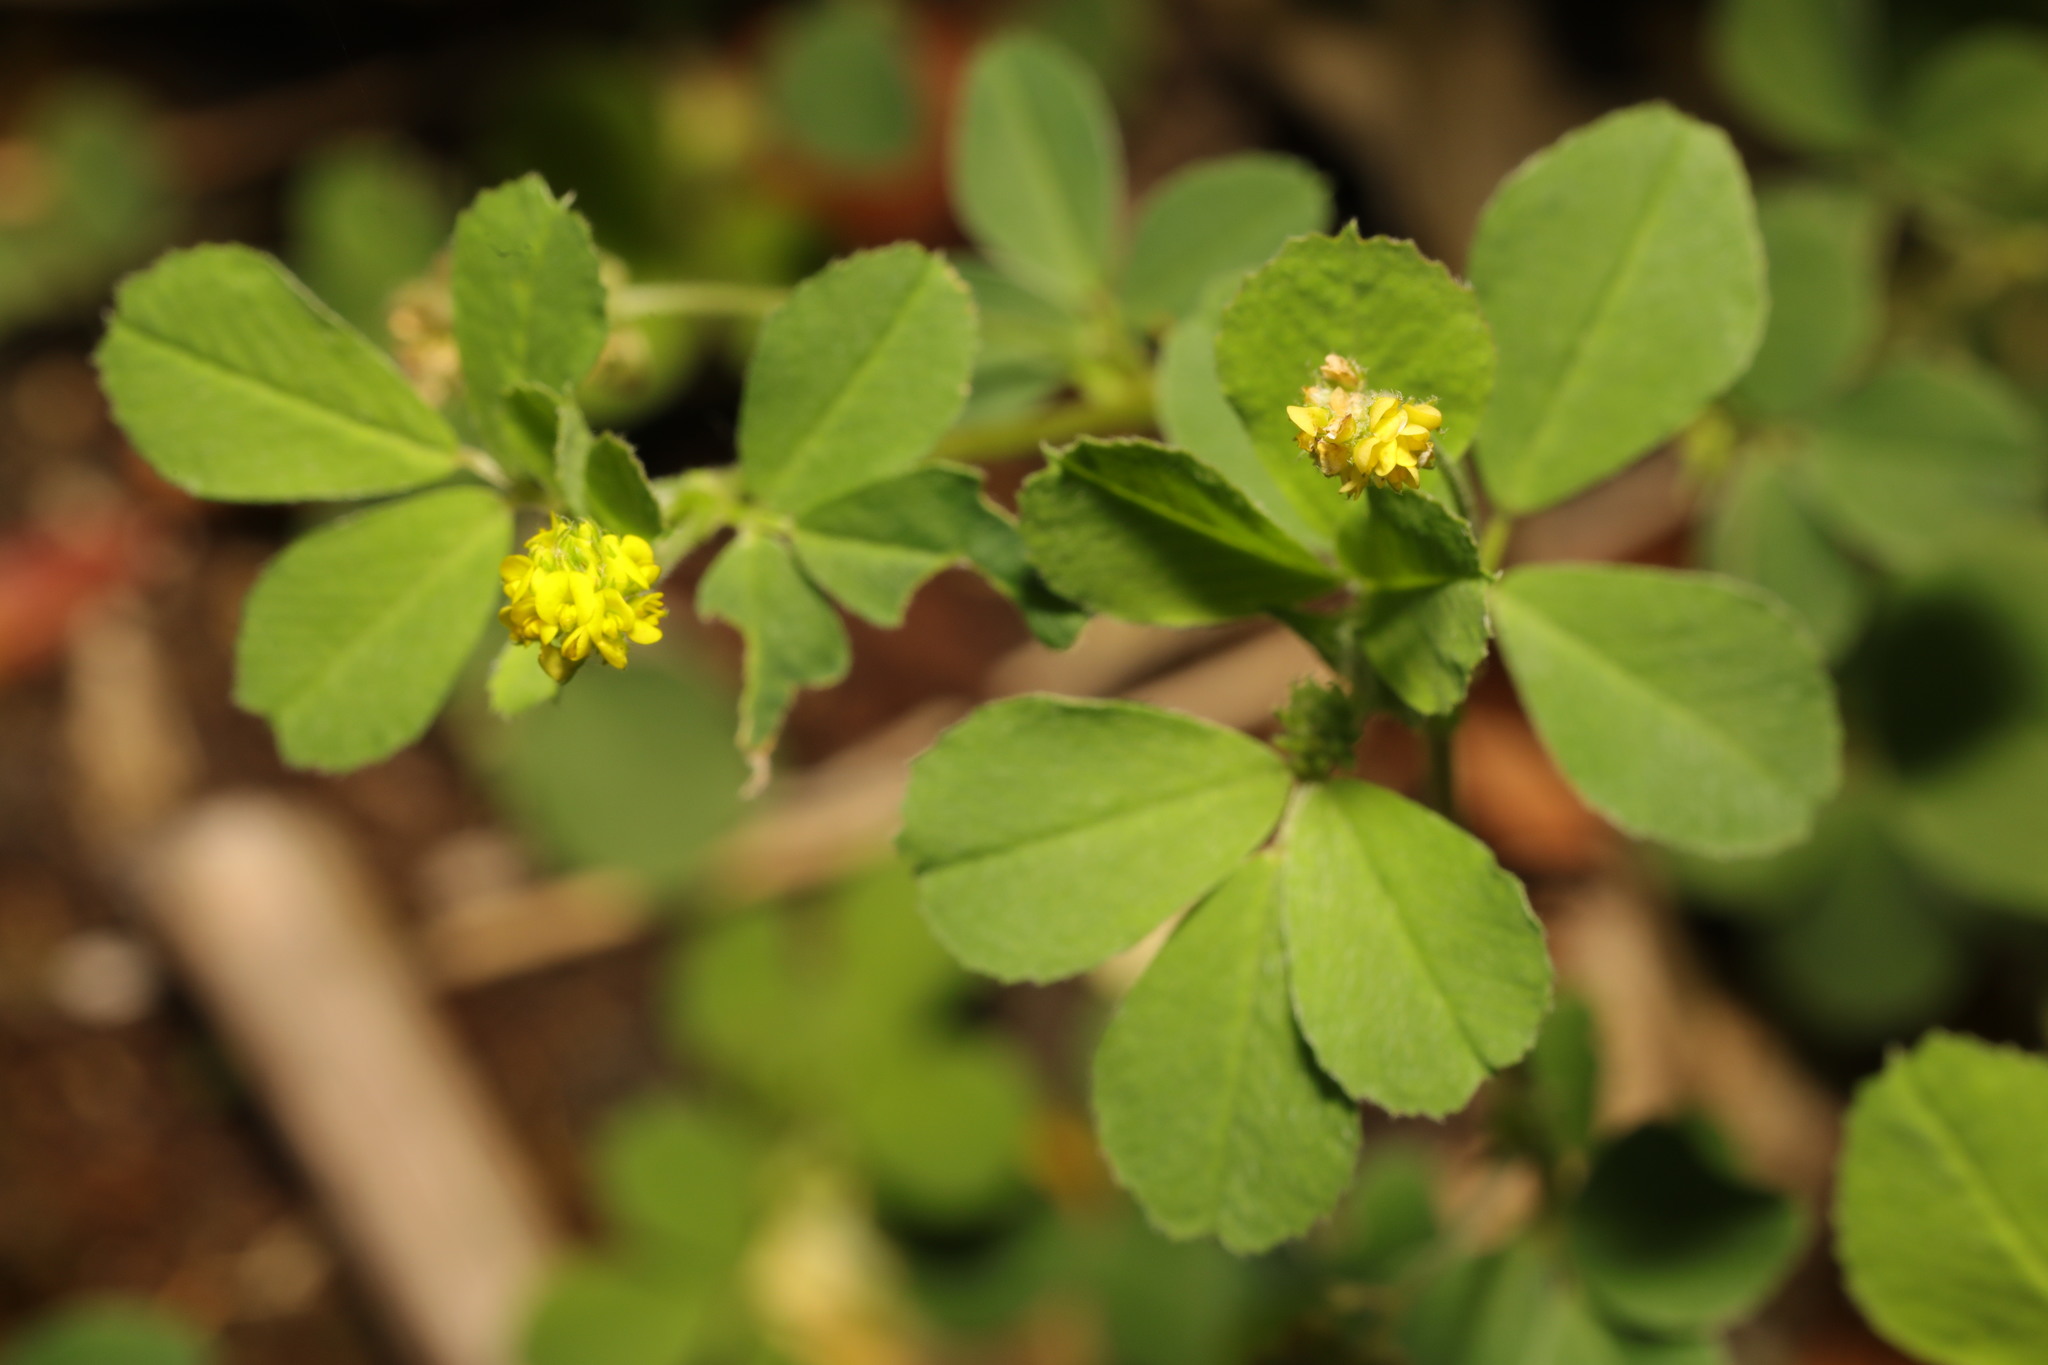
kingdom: Plantae
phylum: Tracheophyta
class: Magnoliopsida
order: Fabales
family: Fabaceae
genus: Medicago
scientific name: Medicago lupulina
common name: Black medick
